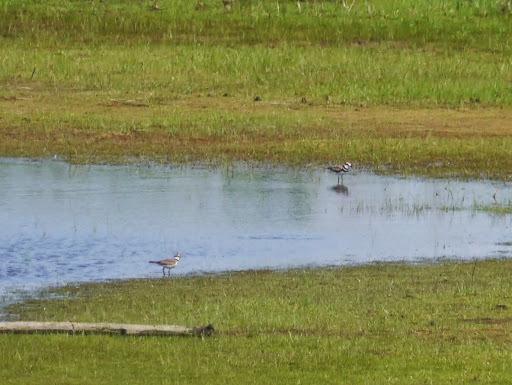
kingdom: Animalia
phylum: Chordata
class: Aves
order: Charadriiformes
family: Charadriidae
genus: Charadrius
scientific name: Charadrius vociferus
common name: Killdeer
